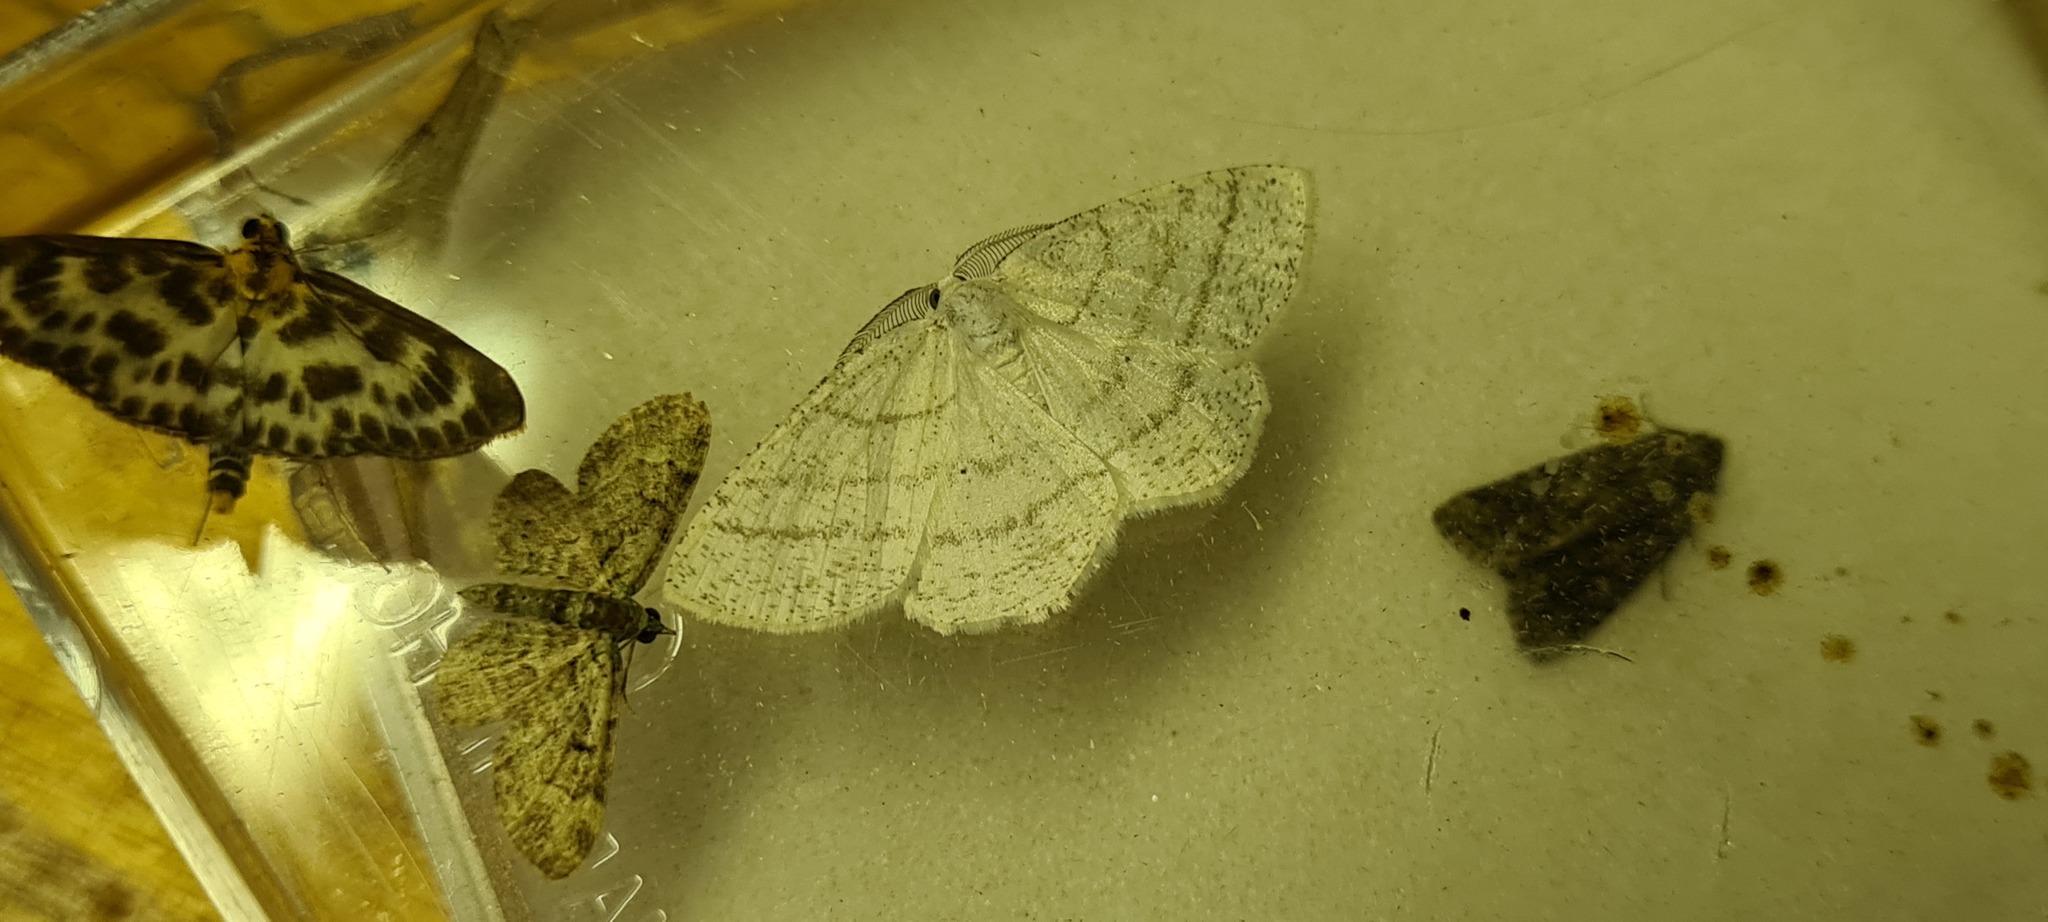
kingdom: Animalia
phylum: Arthropoda
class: Insecta
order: Lepidoptera
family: Geometridae
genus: Cabera
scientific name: Cabera pusaria
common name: Common white wave
